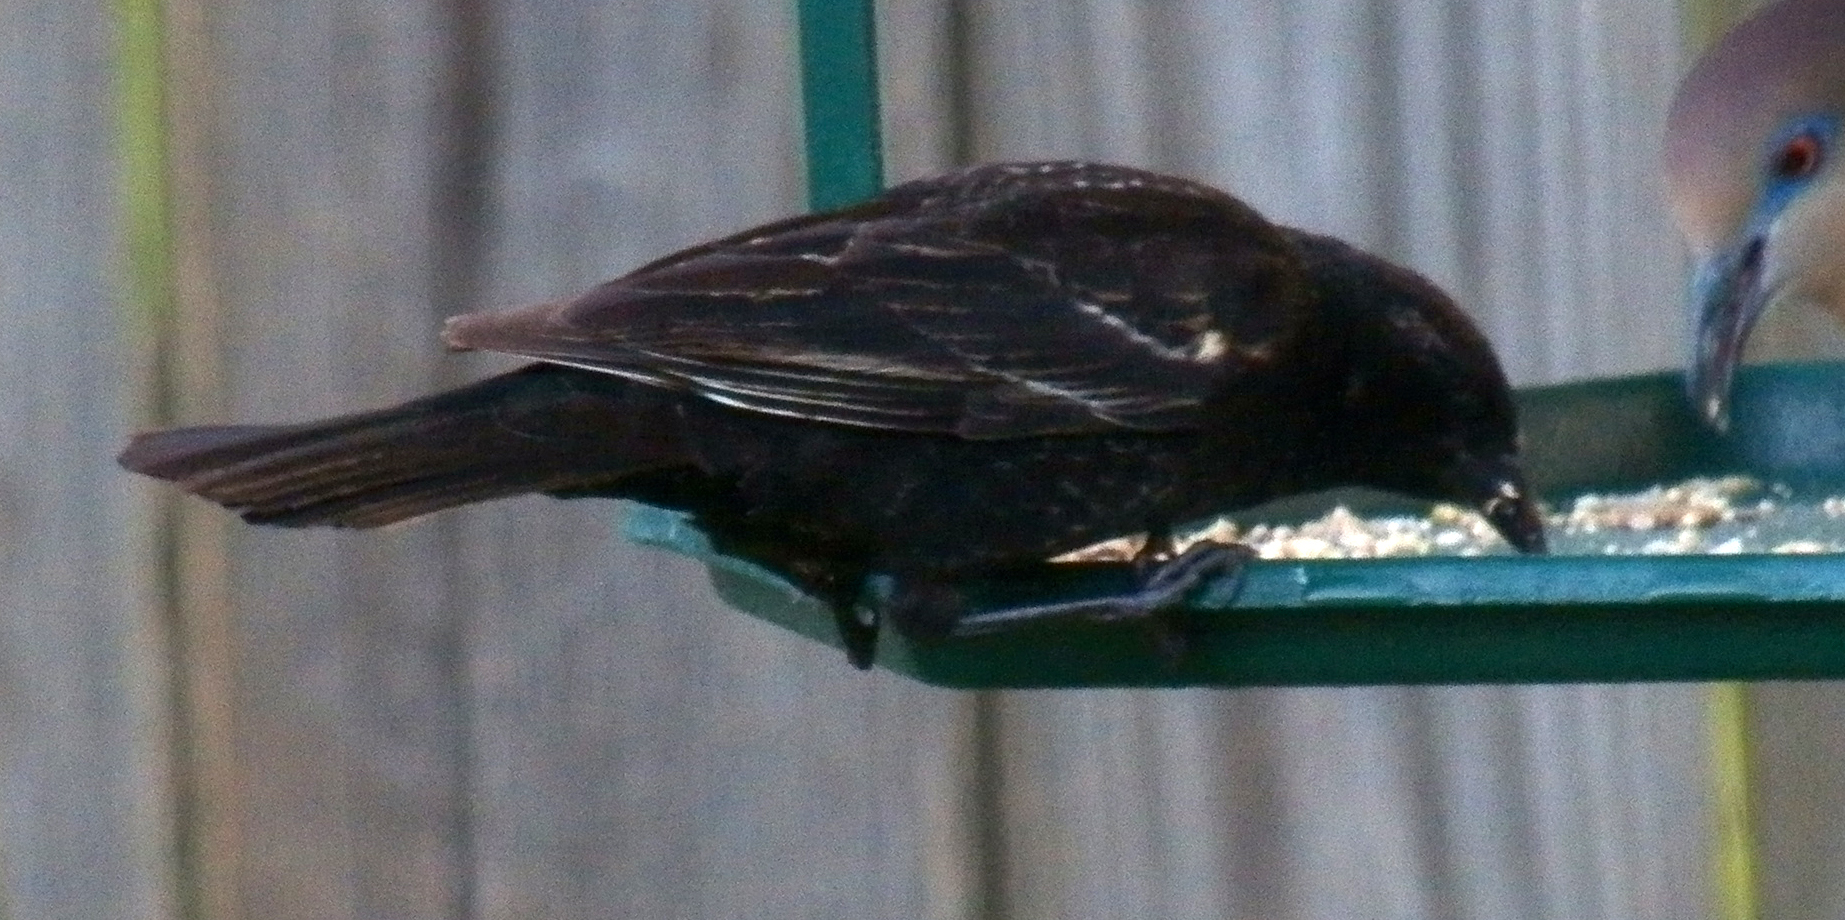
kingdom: Animalia
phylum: Chordata
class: Aves
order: Passeriformes
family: Icteridae
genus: Agelaius
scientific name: Agelaius phoeniceus
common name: Red-winged blackbird
